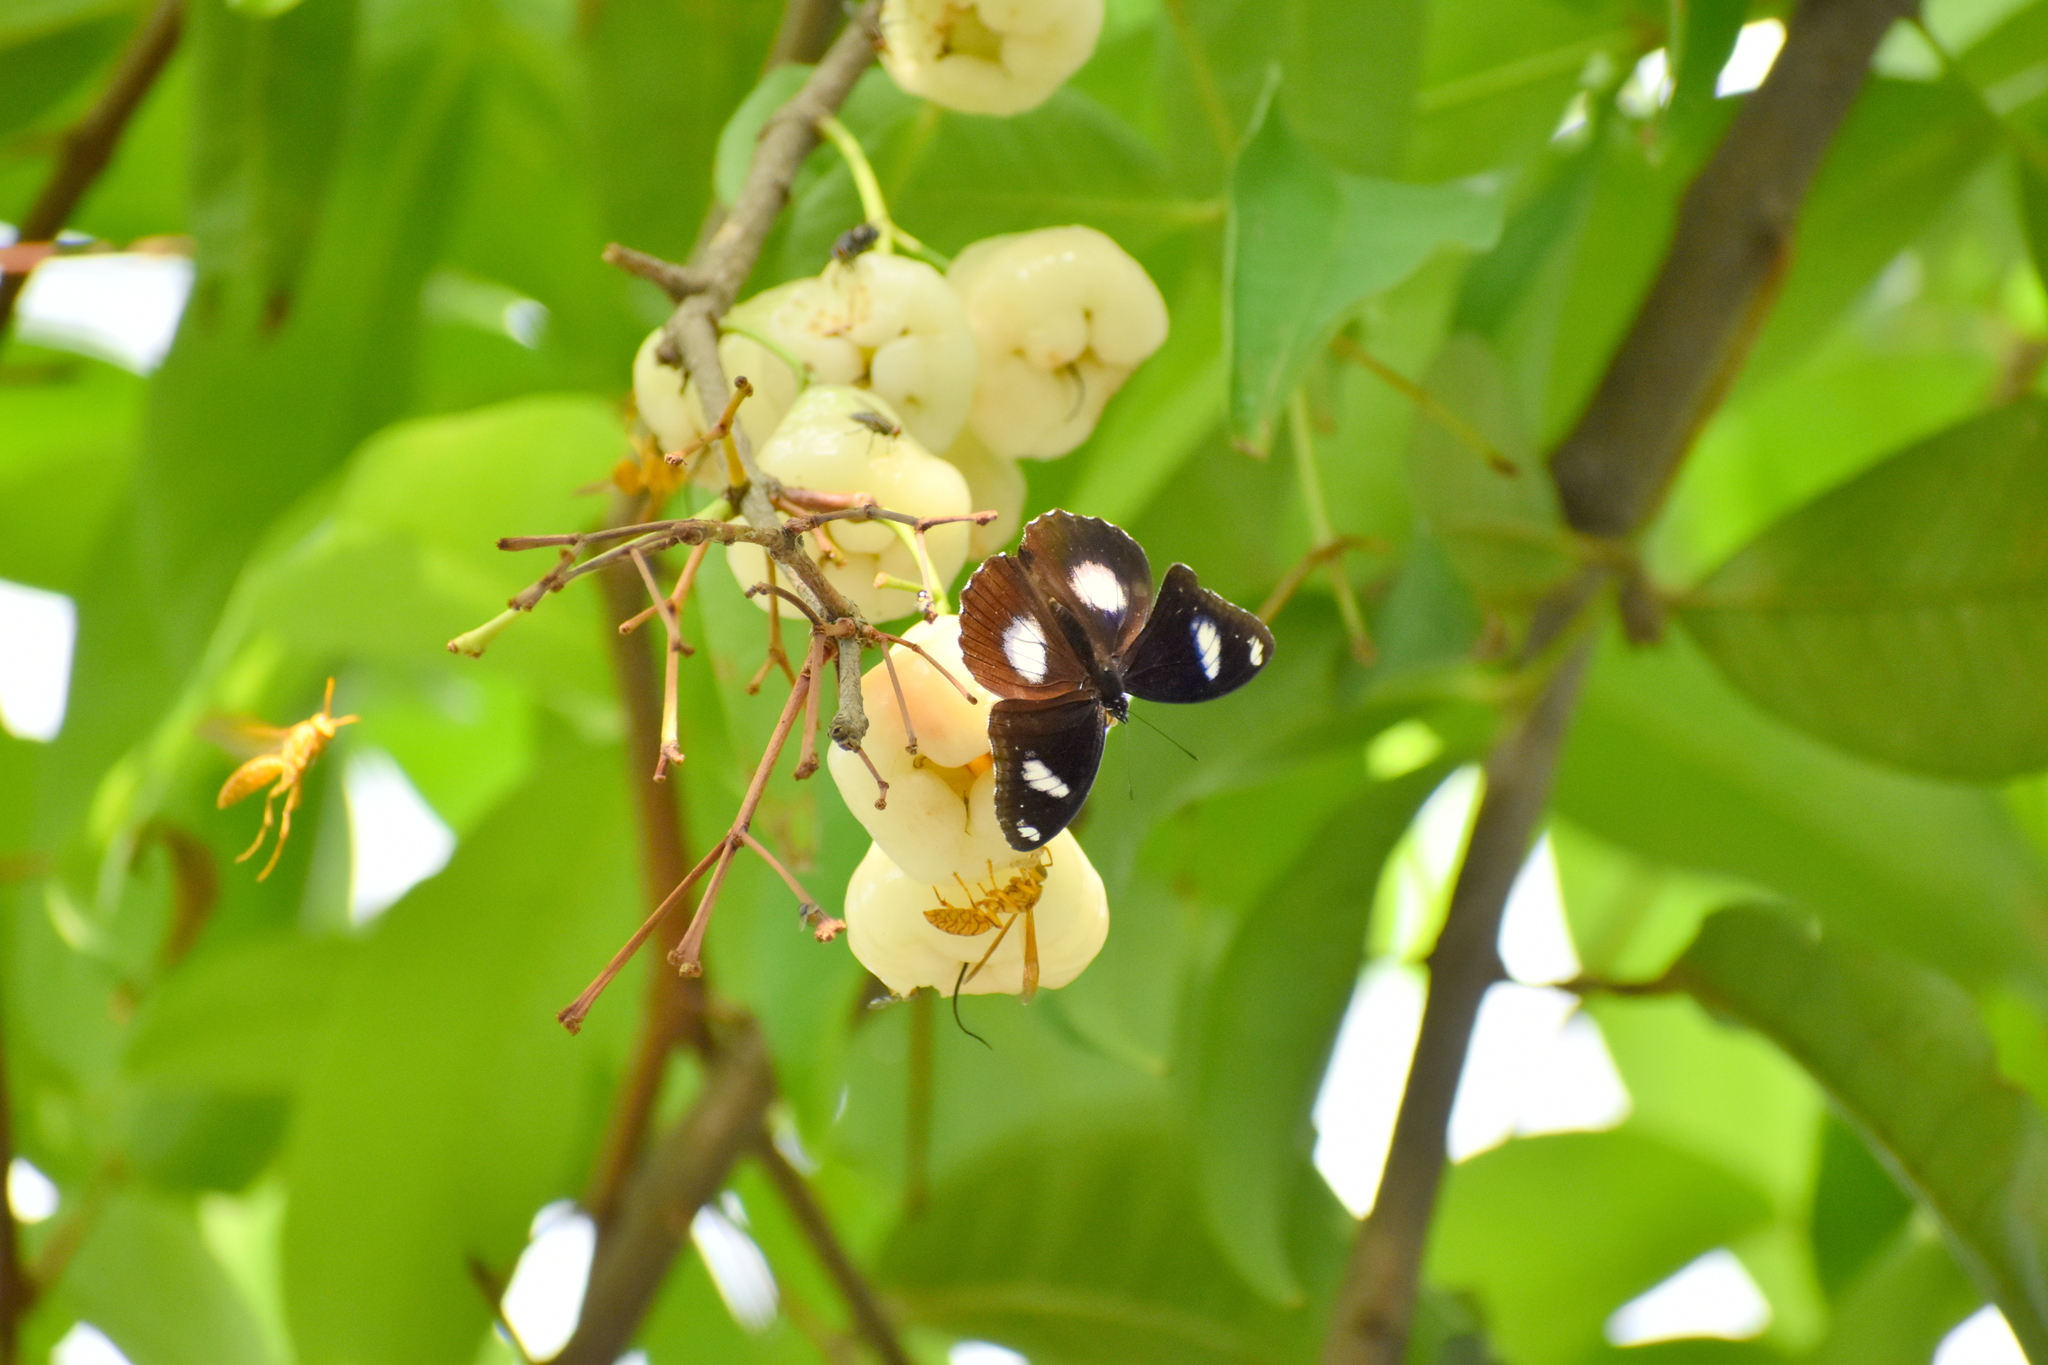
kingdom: Animalia
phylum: Arthropoda
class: Insecta
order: Lepidoptera
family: Nymphalidae
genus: Hypolimnas
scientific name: Hypolimnas bolina
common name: Great eggfly
